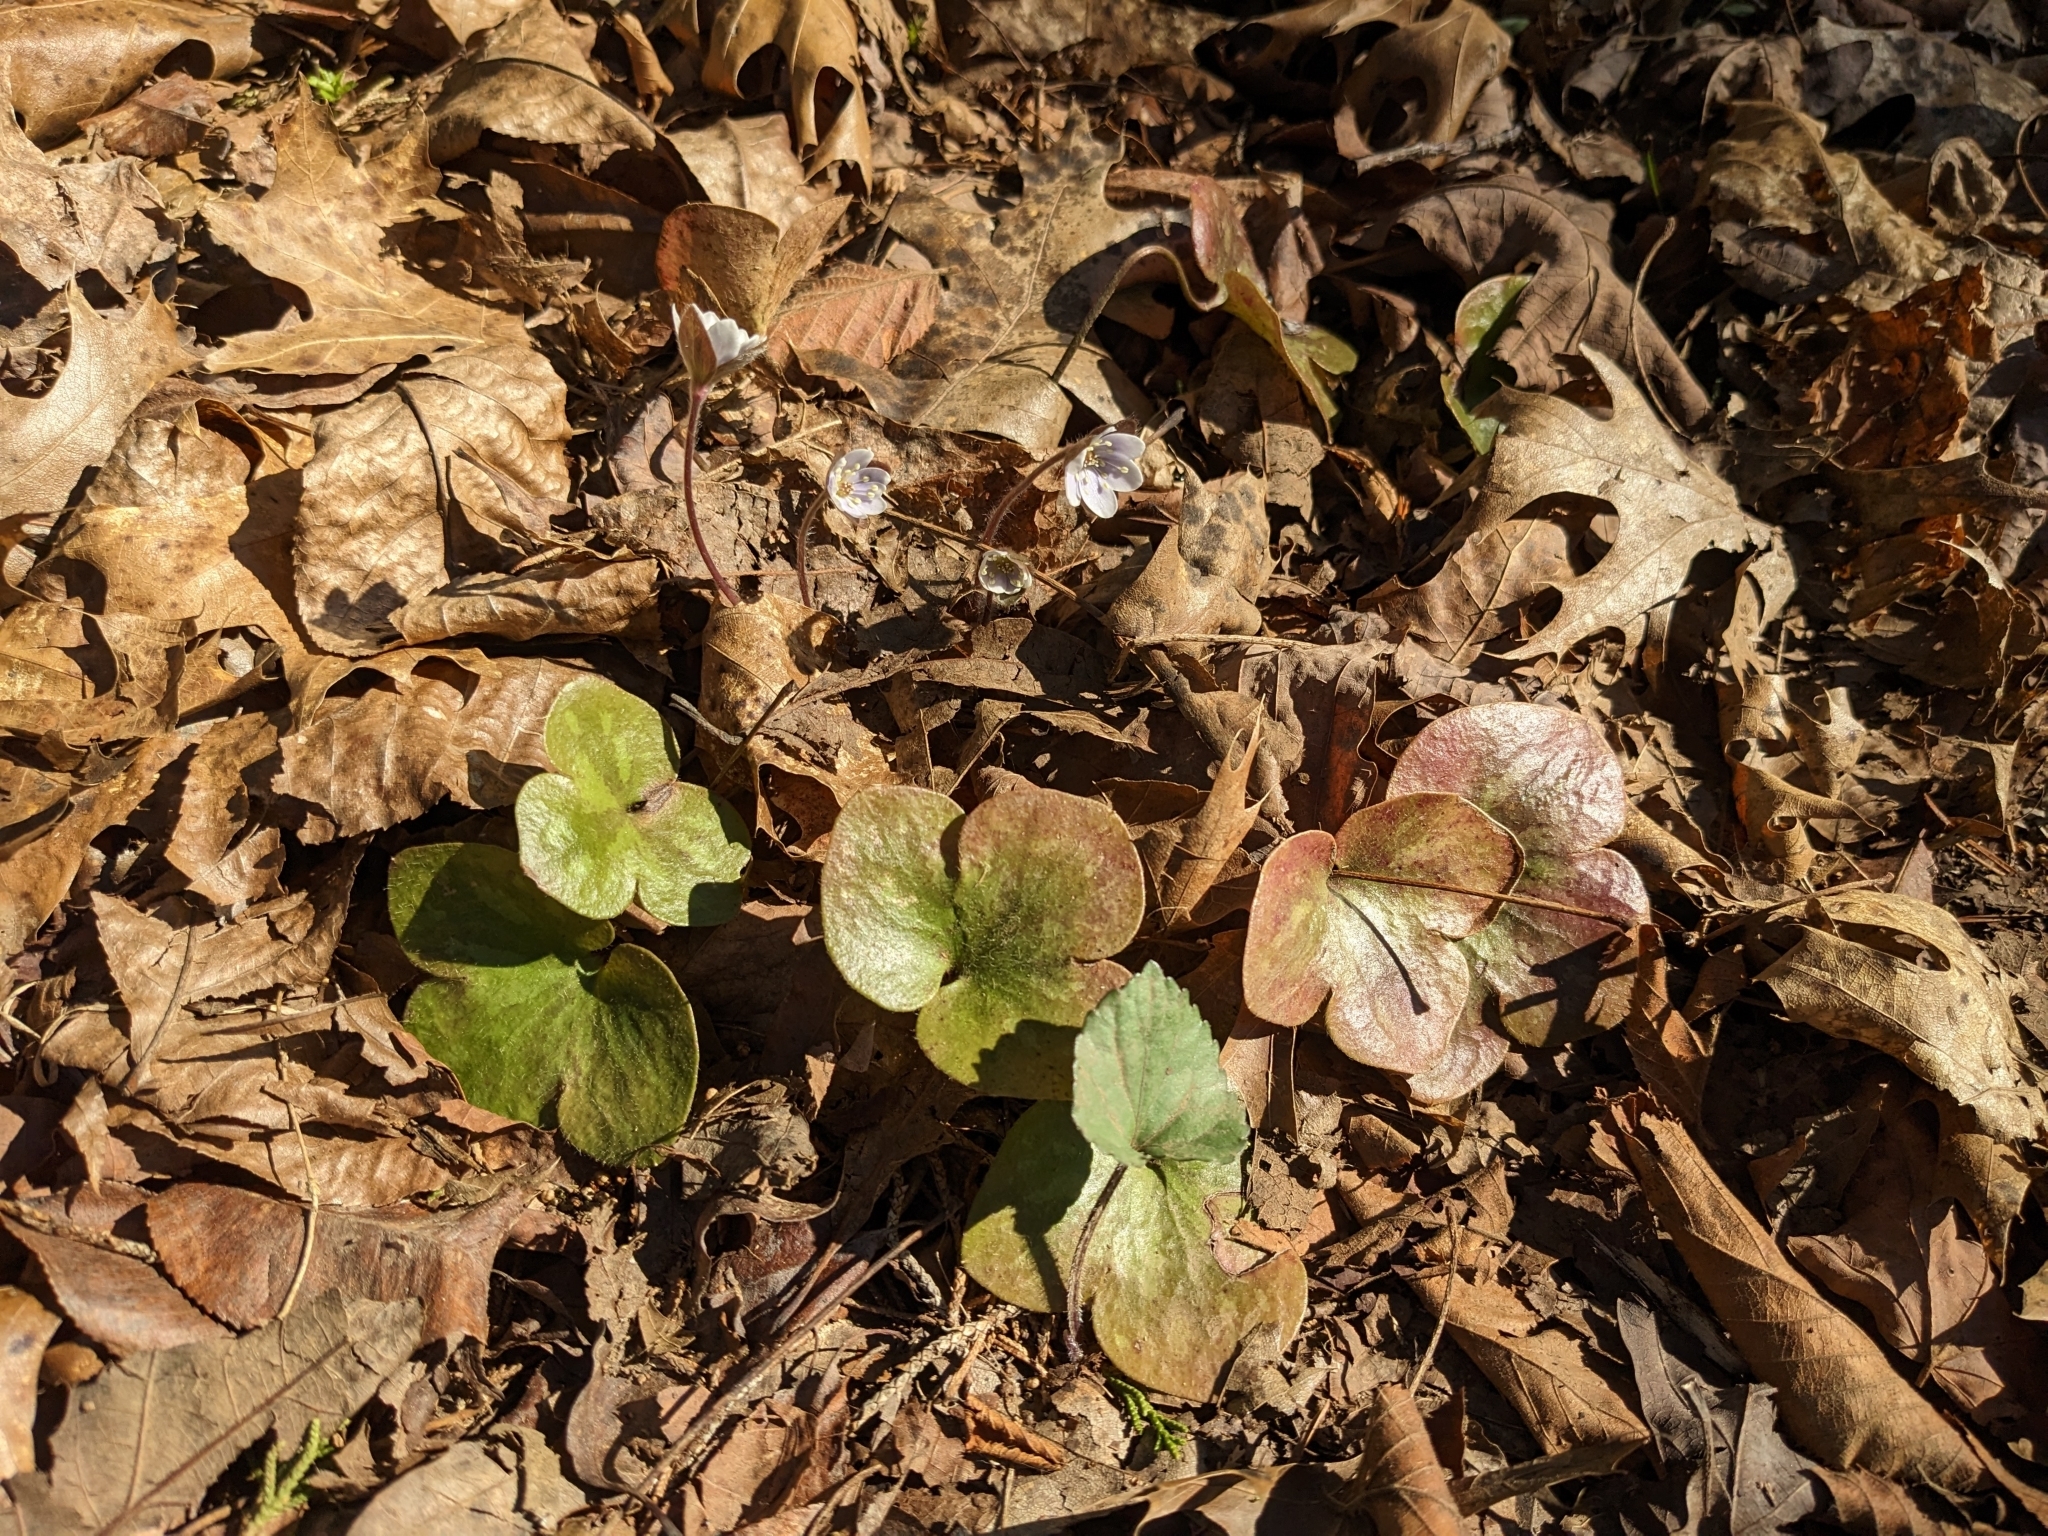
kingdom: Plantae
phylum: Tracheophyta
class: Magnoliopsida
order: Ranunculales
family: Ranunculaceae
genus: Hepatica
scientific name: Hepatica americana
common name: American hepatica
